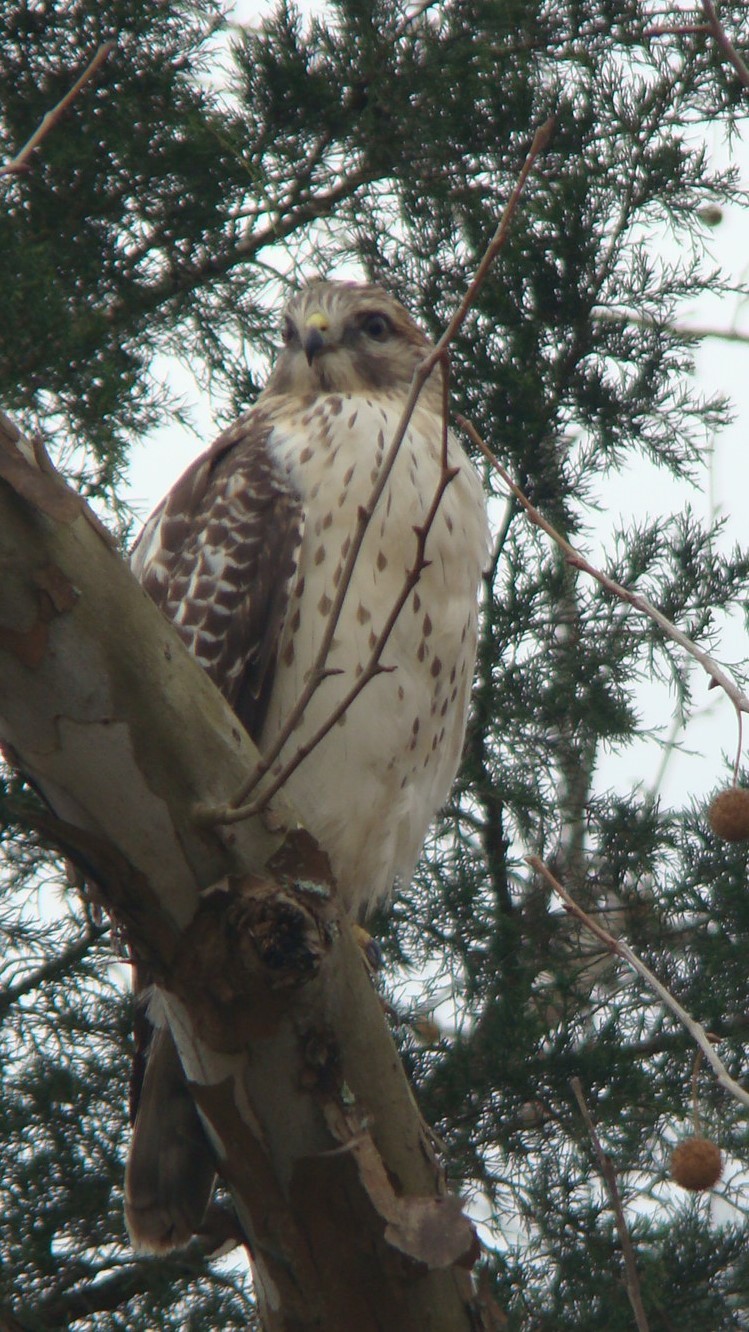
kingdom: Animalia
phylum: Chordata
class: Aves
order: Accipitriformes
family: Accipitridae
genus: Buteo
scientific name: Buteo lineatus
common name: Red-shouldered hawk
